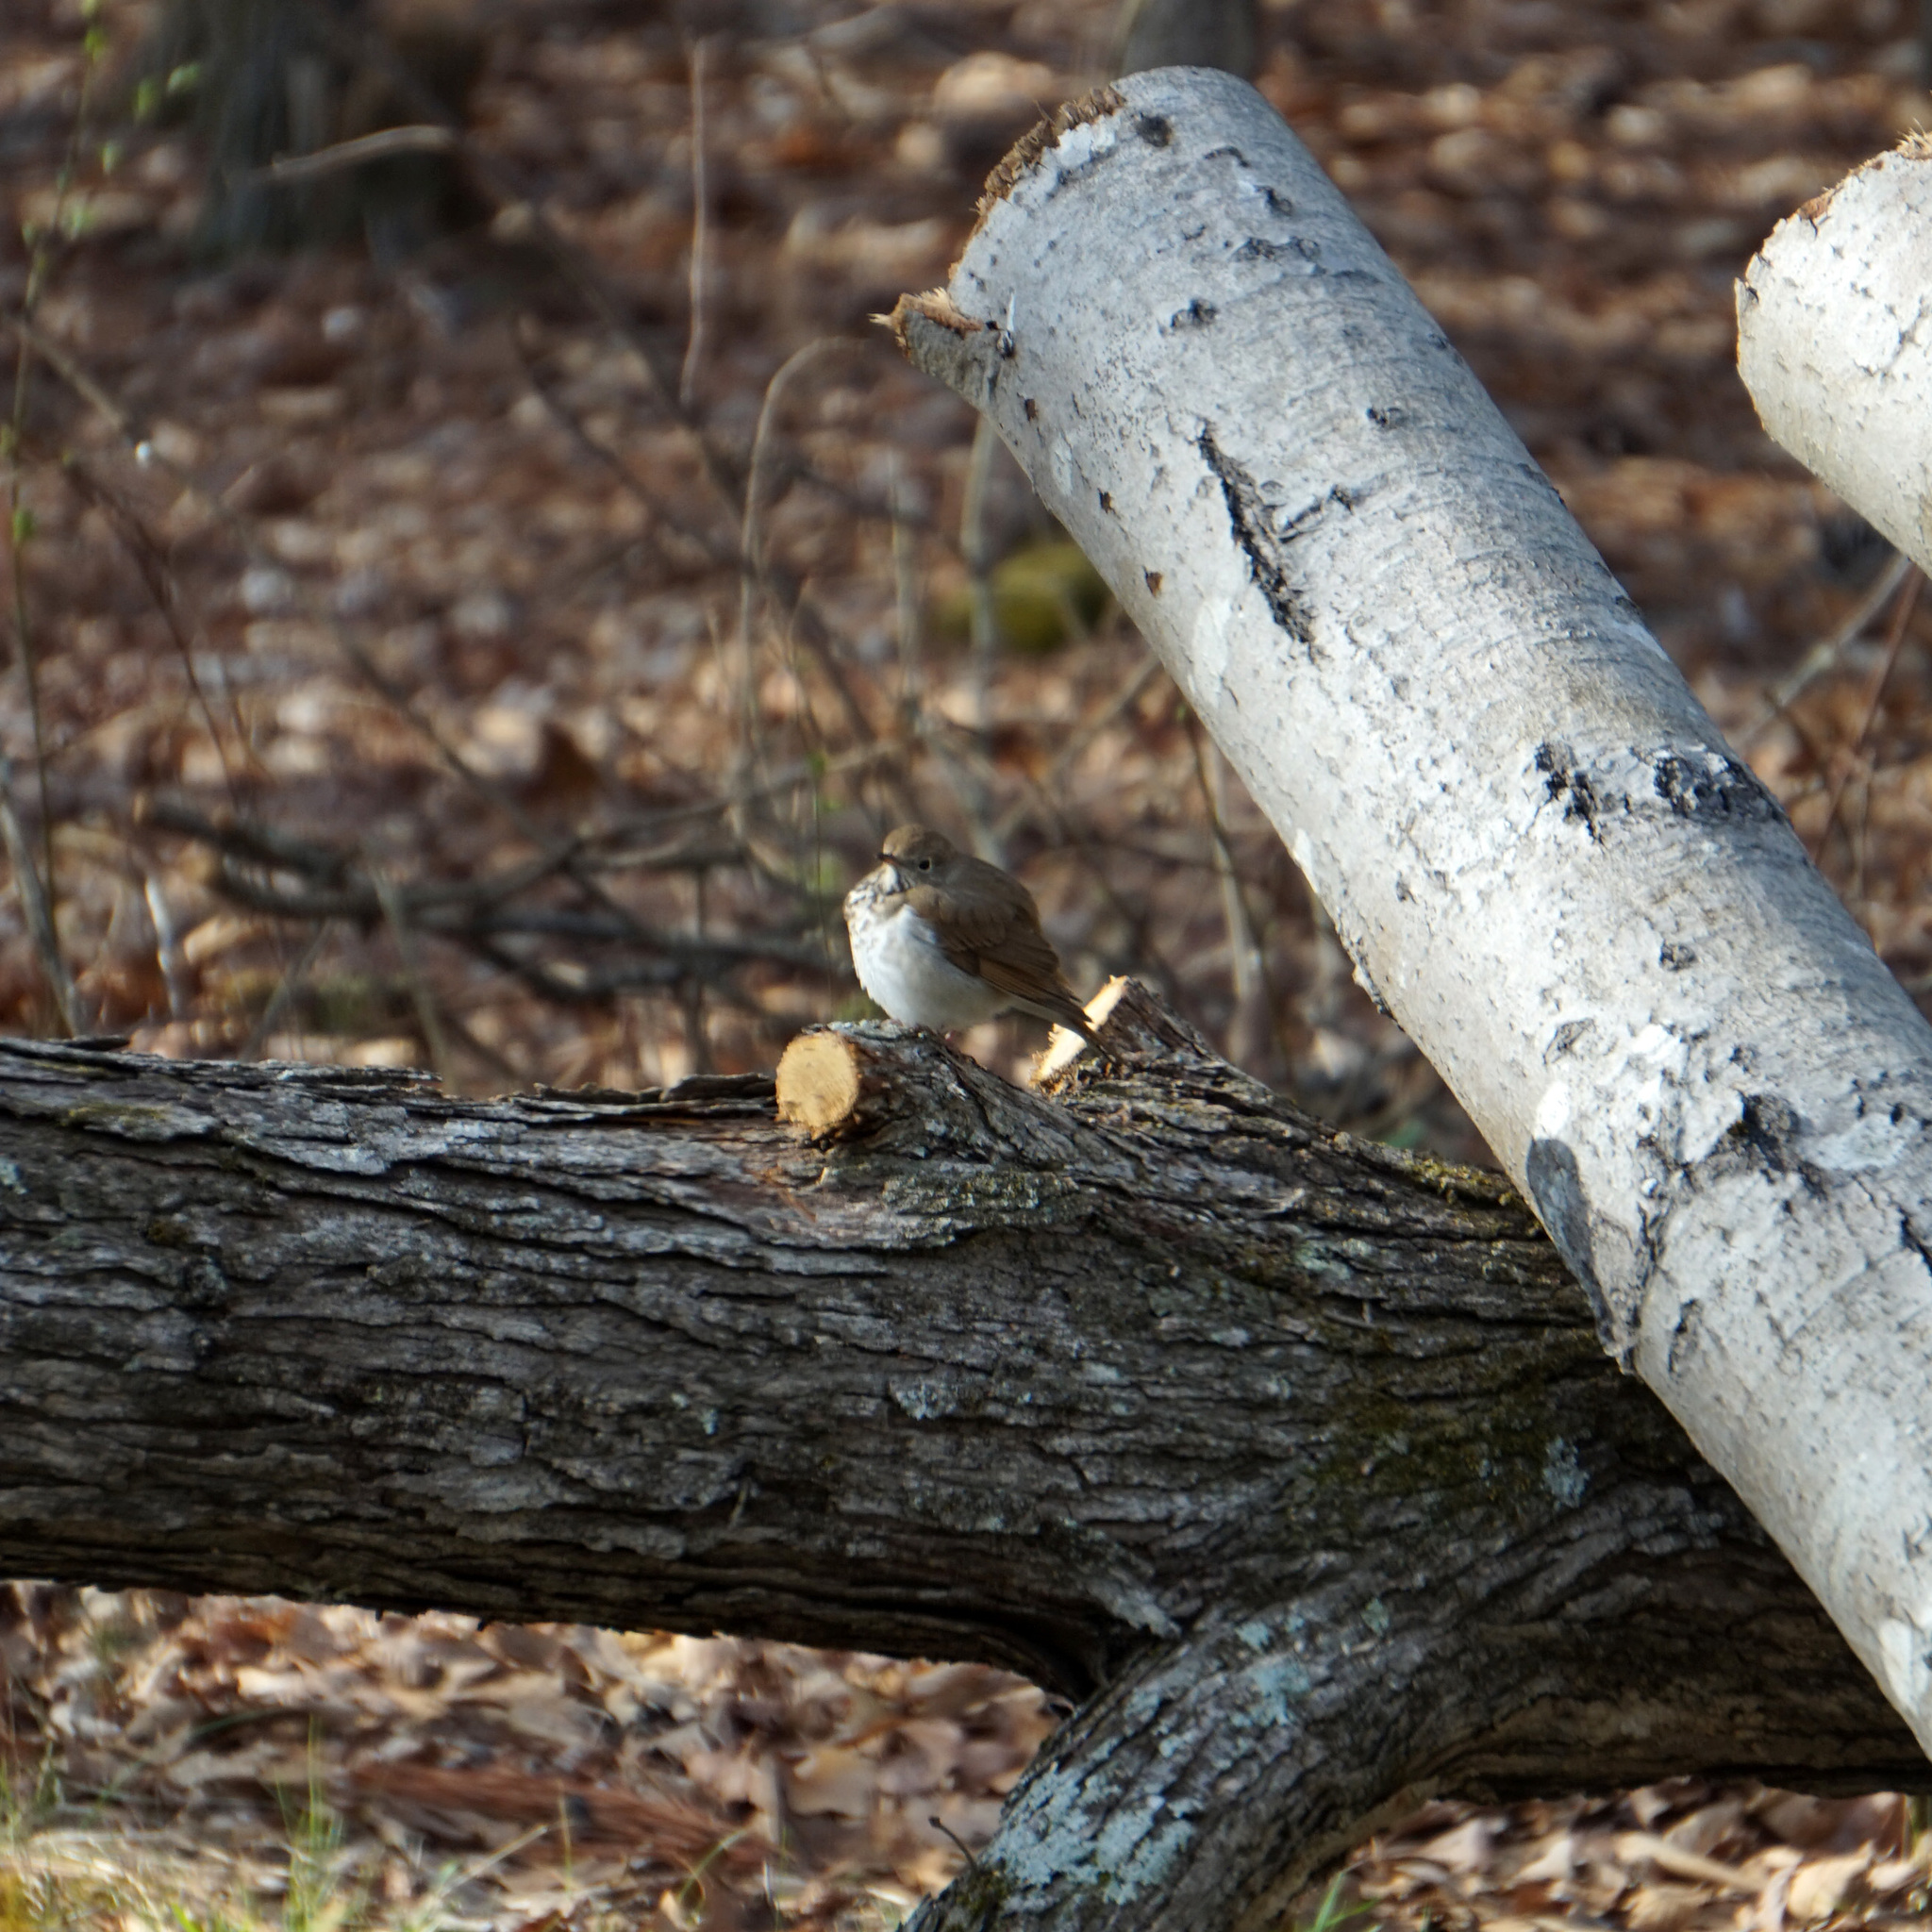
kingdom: Animalia
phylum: Chordata
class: Aves
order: Passeriformes
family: Turdidae
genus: Catharus
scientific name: Catharus guttatus
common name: Hermit thrush
